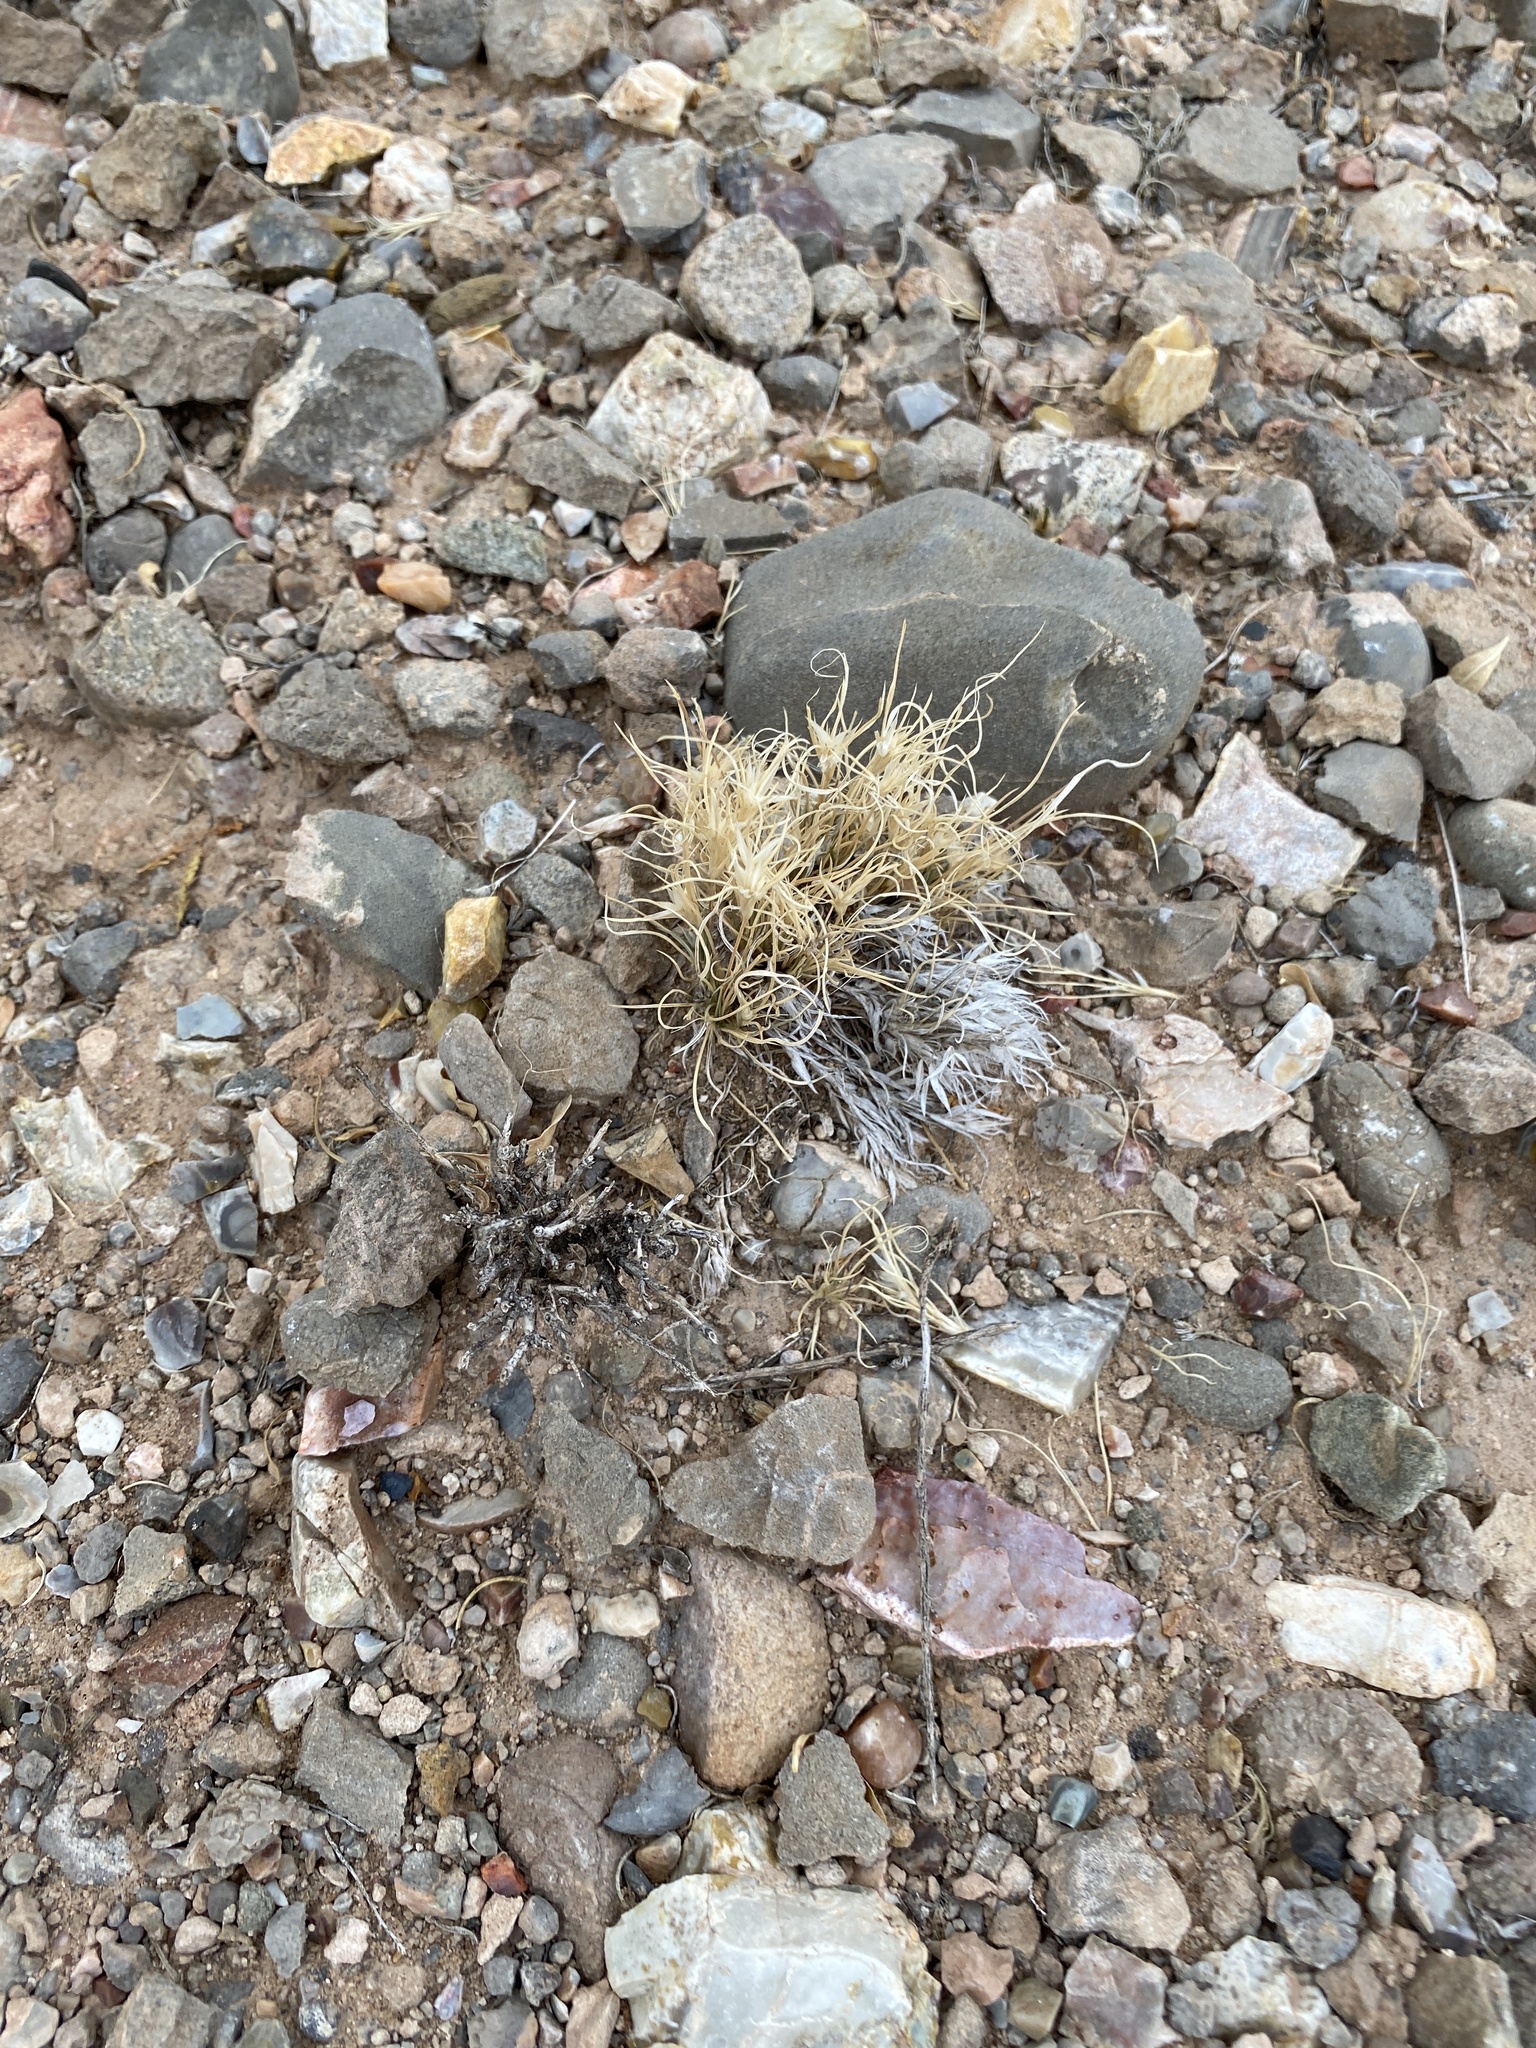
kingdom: Plantae
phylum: Tracheophyta
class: Liliopsida
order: Poales
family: Poaceae
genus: Dasyochloa
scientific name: Dasyochloa pulchella
